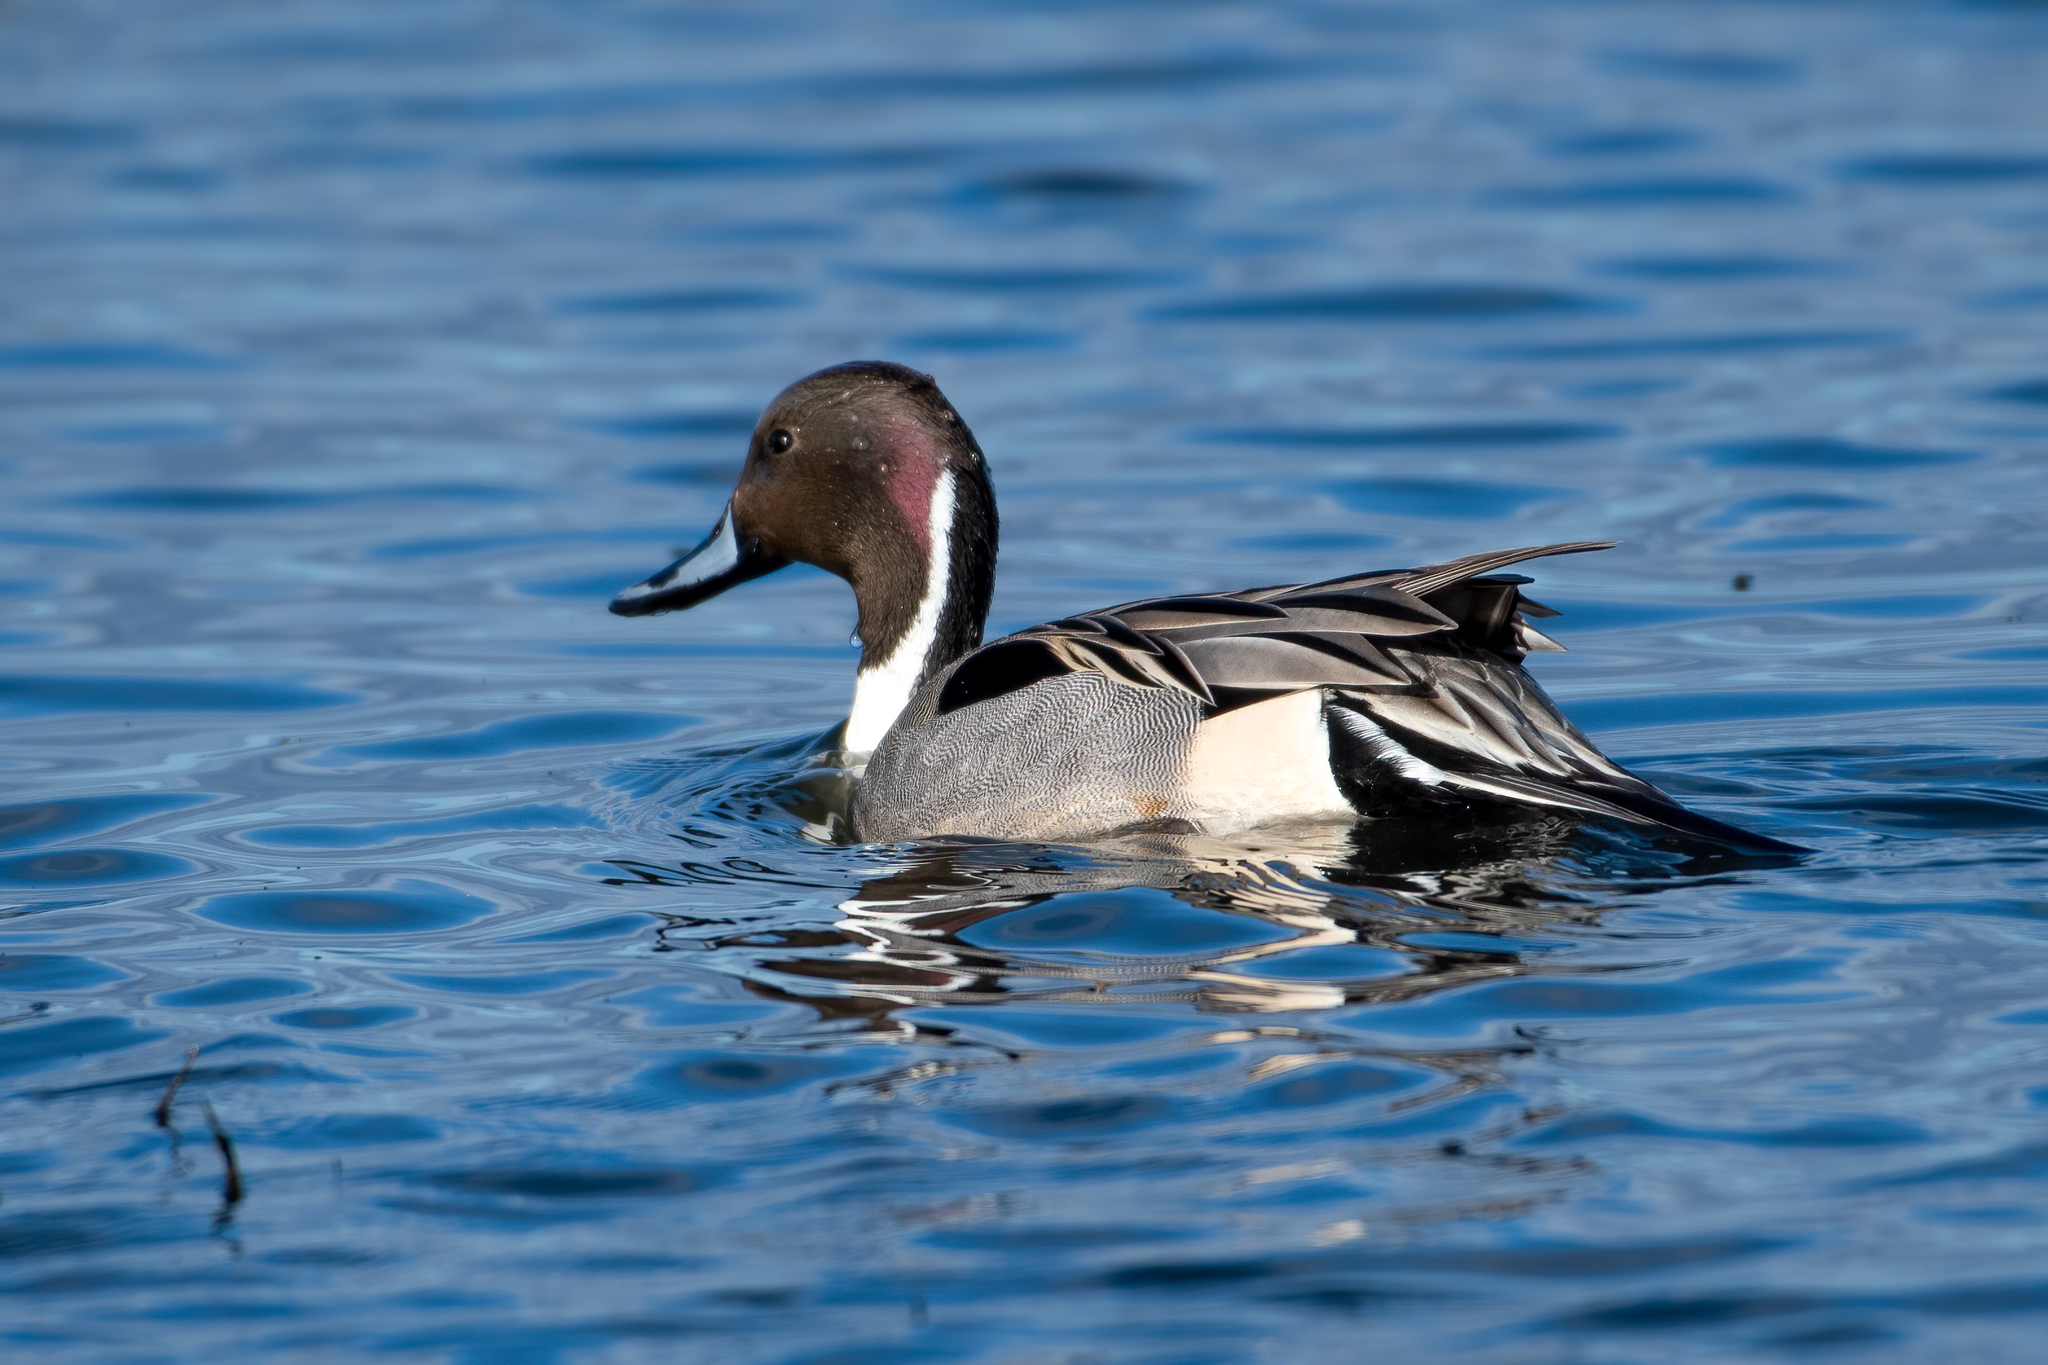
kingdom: Animalia
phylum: Chordata
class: Aves
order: Anseriformes
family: Anatidae
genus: Anas
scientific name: Anas acuta
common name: Northern pintail
